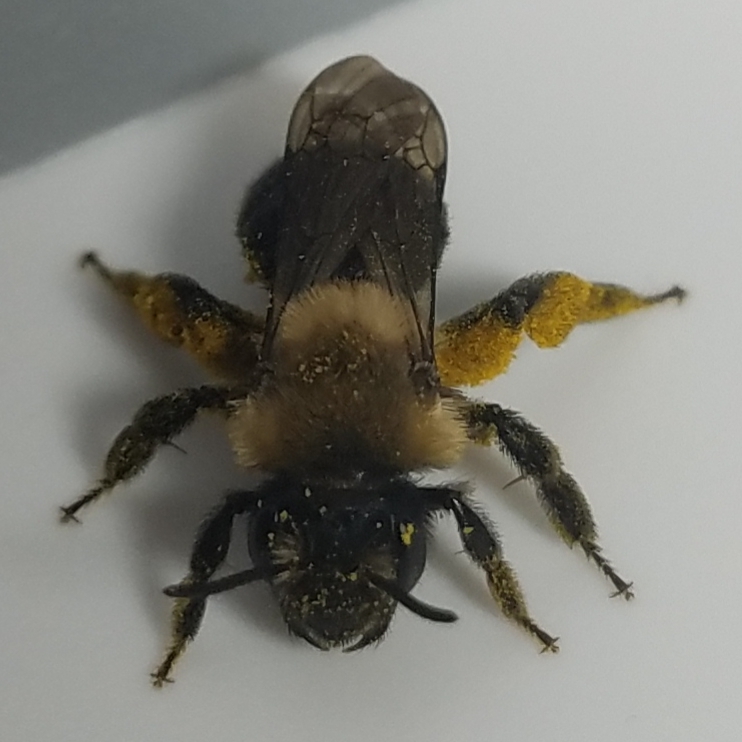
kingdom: Animalia
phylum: Arthropoda
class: Insecta
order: Hymenoptera
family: Andrenidae
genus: Andrena
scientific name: Andrena carlini
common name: Carlin's mining bee
